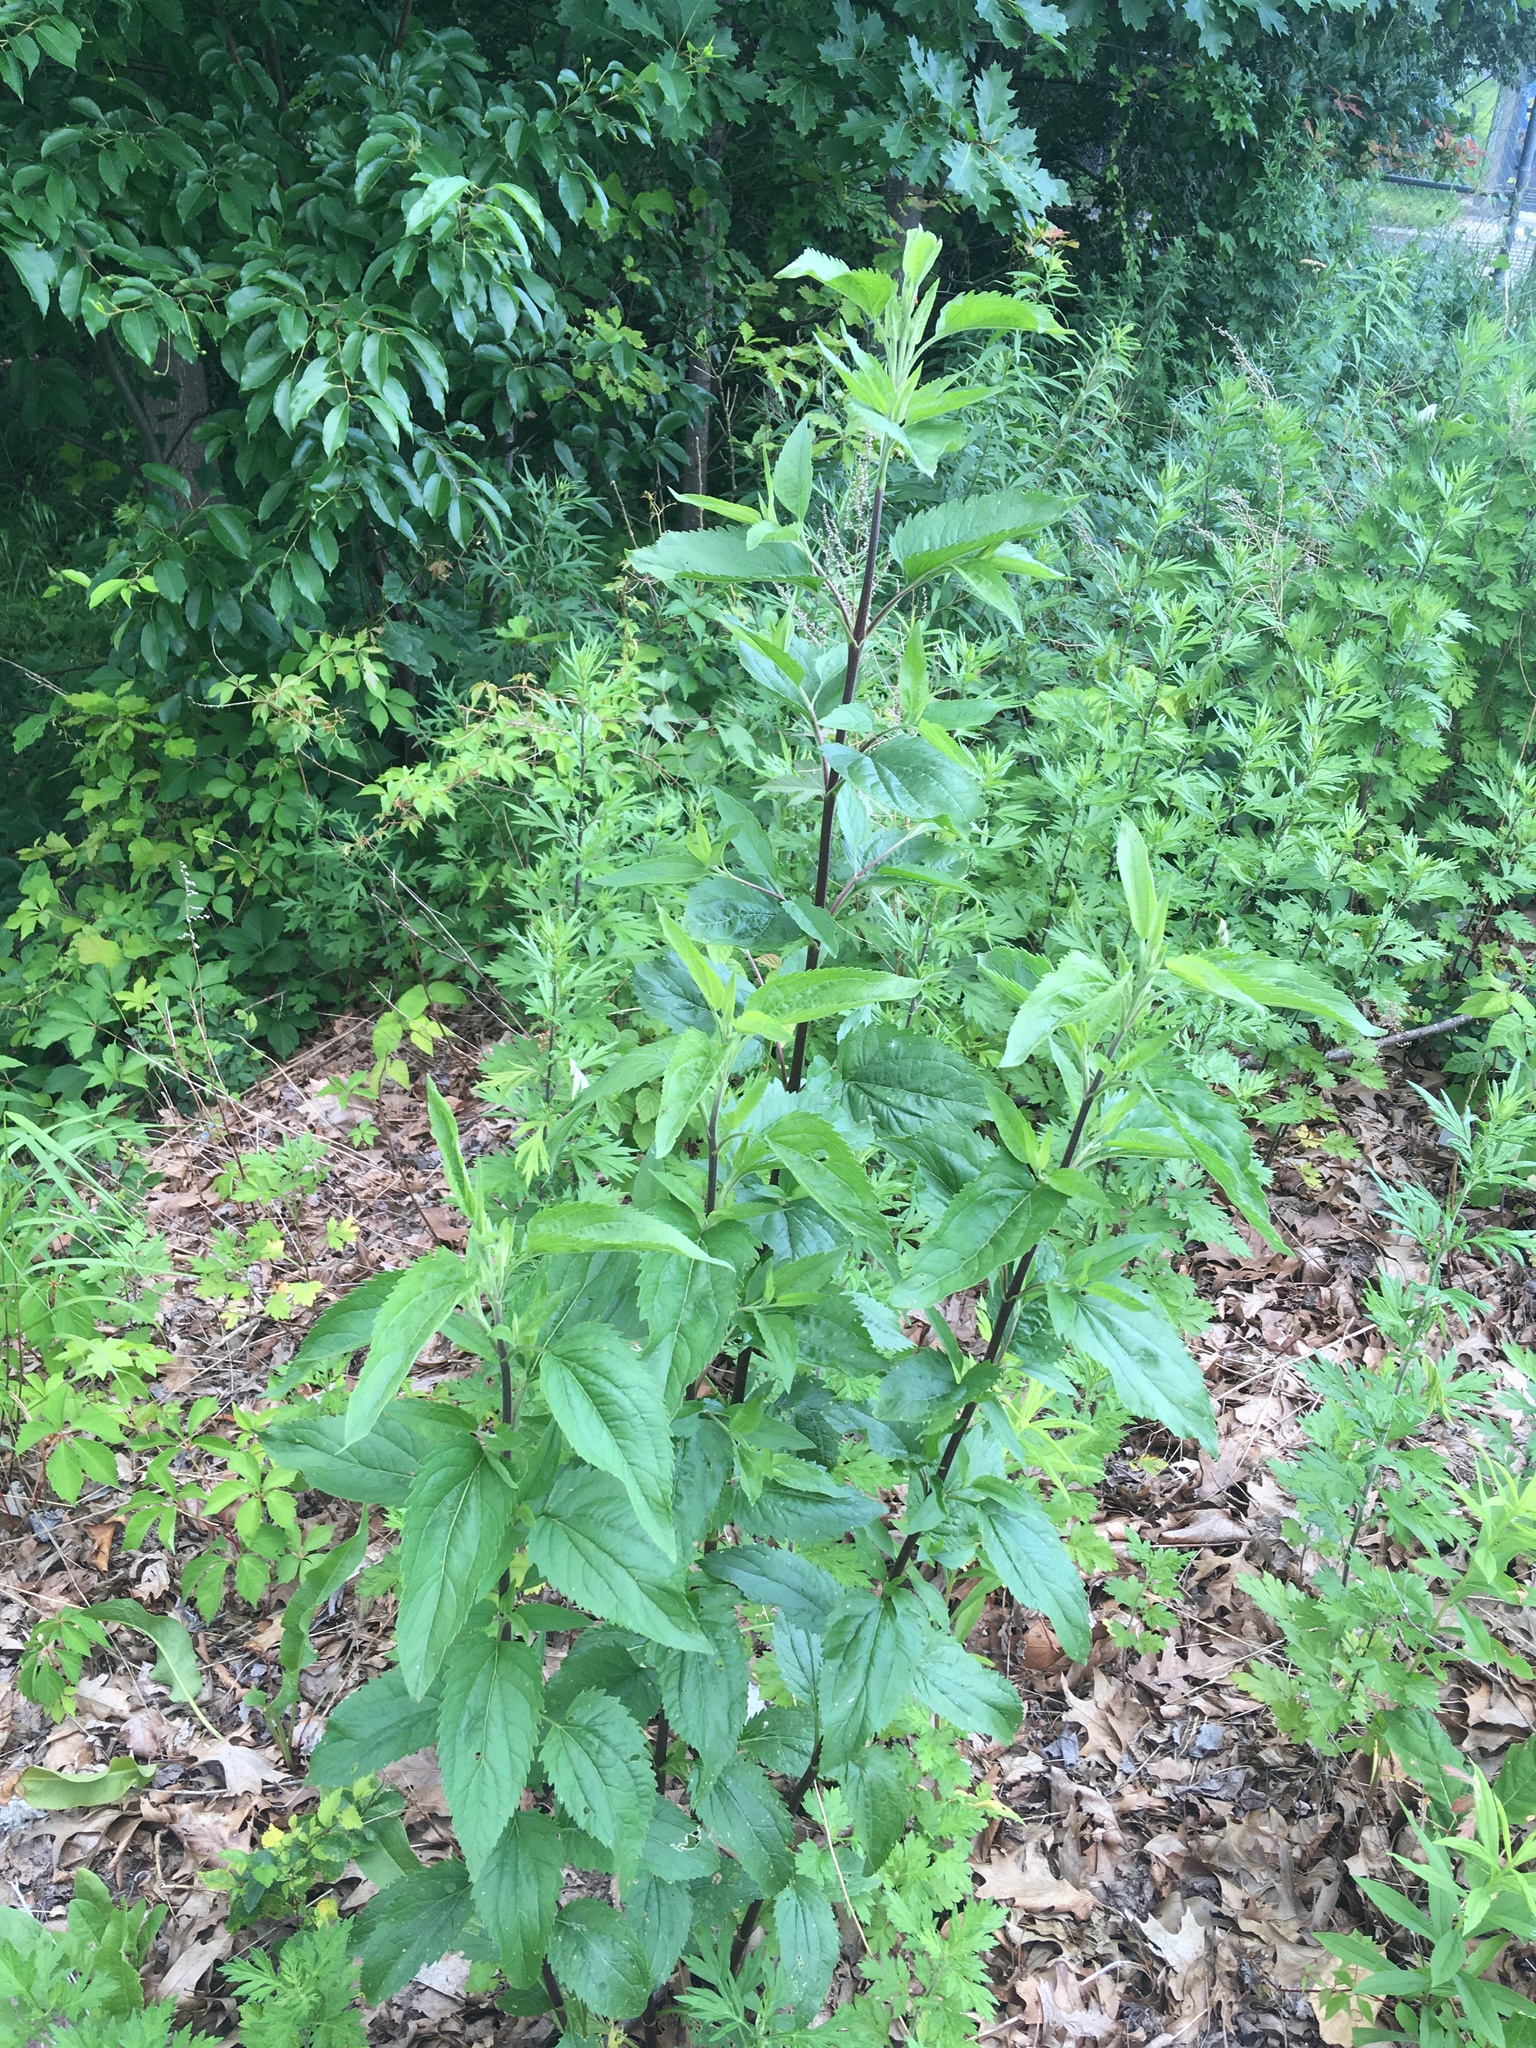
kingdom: Plantae
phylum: Tracheophyta
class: Magnoliopsida
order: Asterales
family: Asteraceae
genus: Eupatorium
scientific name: Eupatorium serotinum
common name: Late boneset
